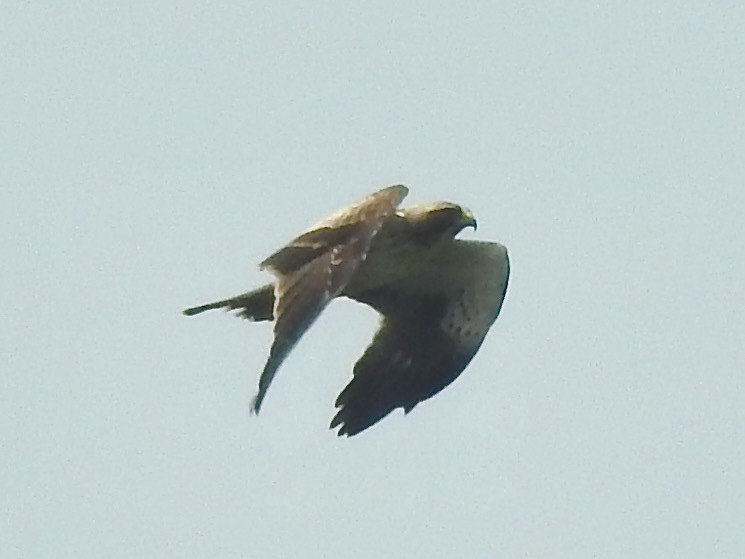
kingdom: Animalia
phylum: Chordata
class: Aves
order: Accipitriformes
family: Accipitridae
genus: Hieraaetus
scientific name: Hieraaetus pennatus
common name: Booted eagle
